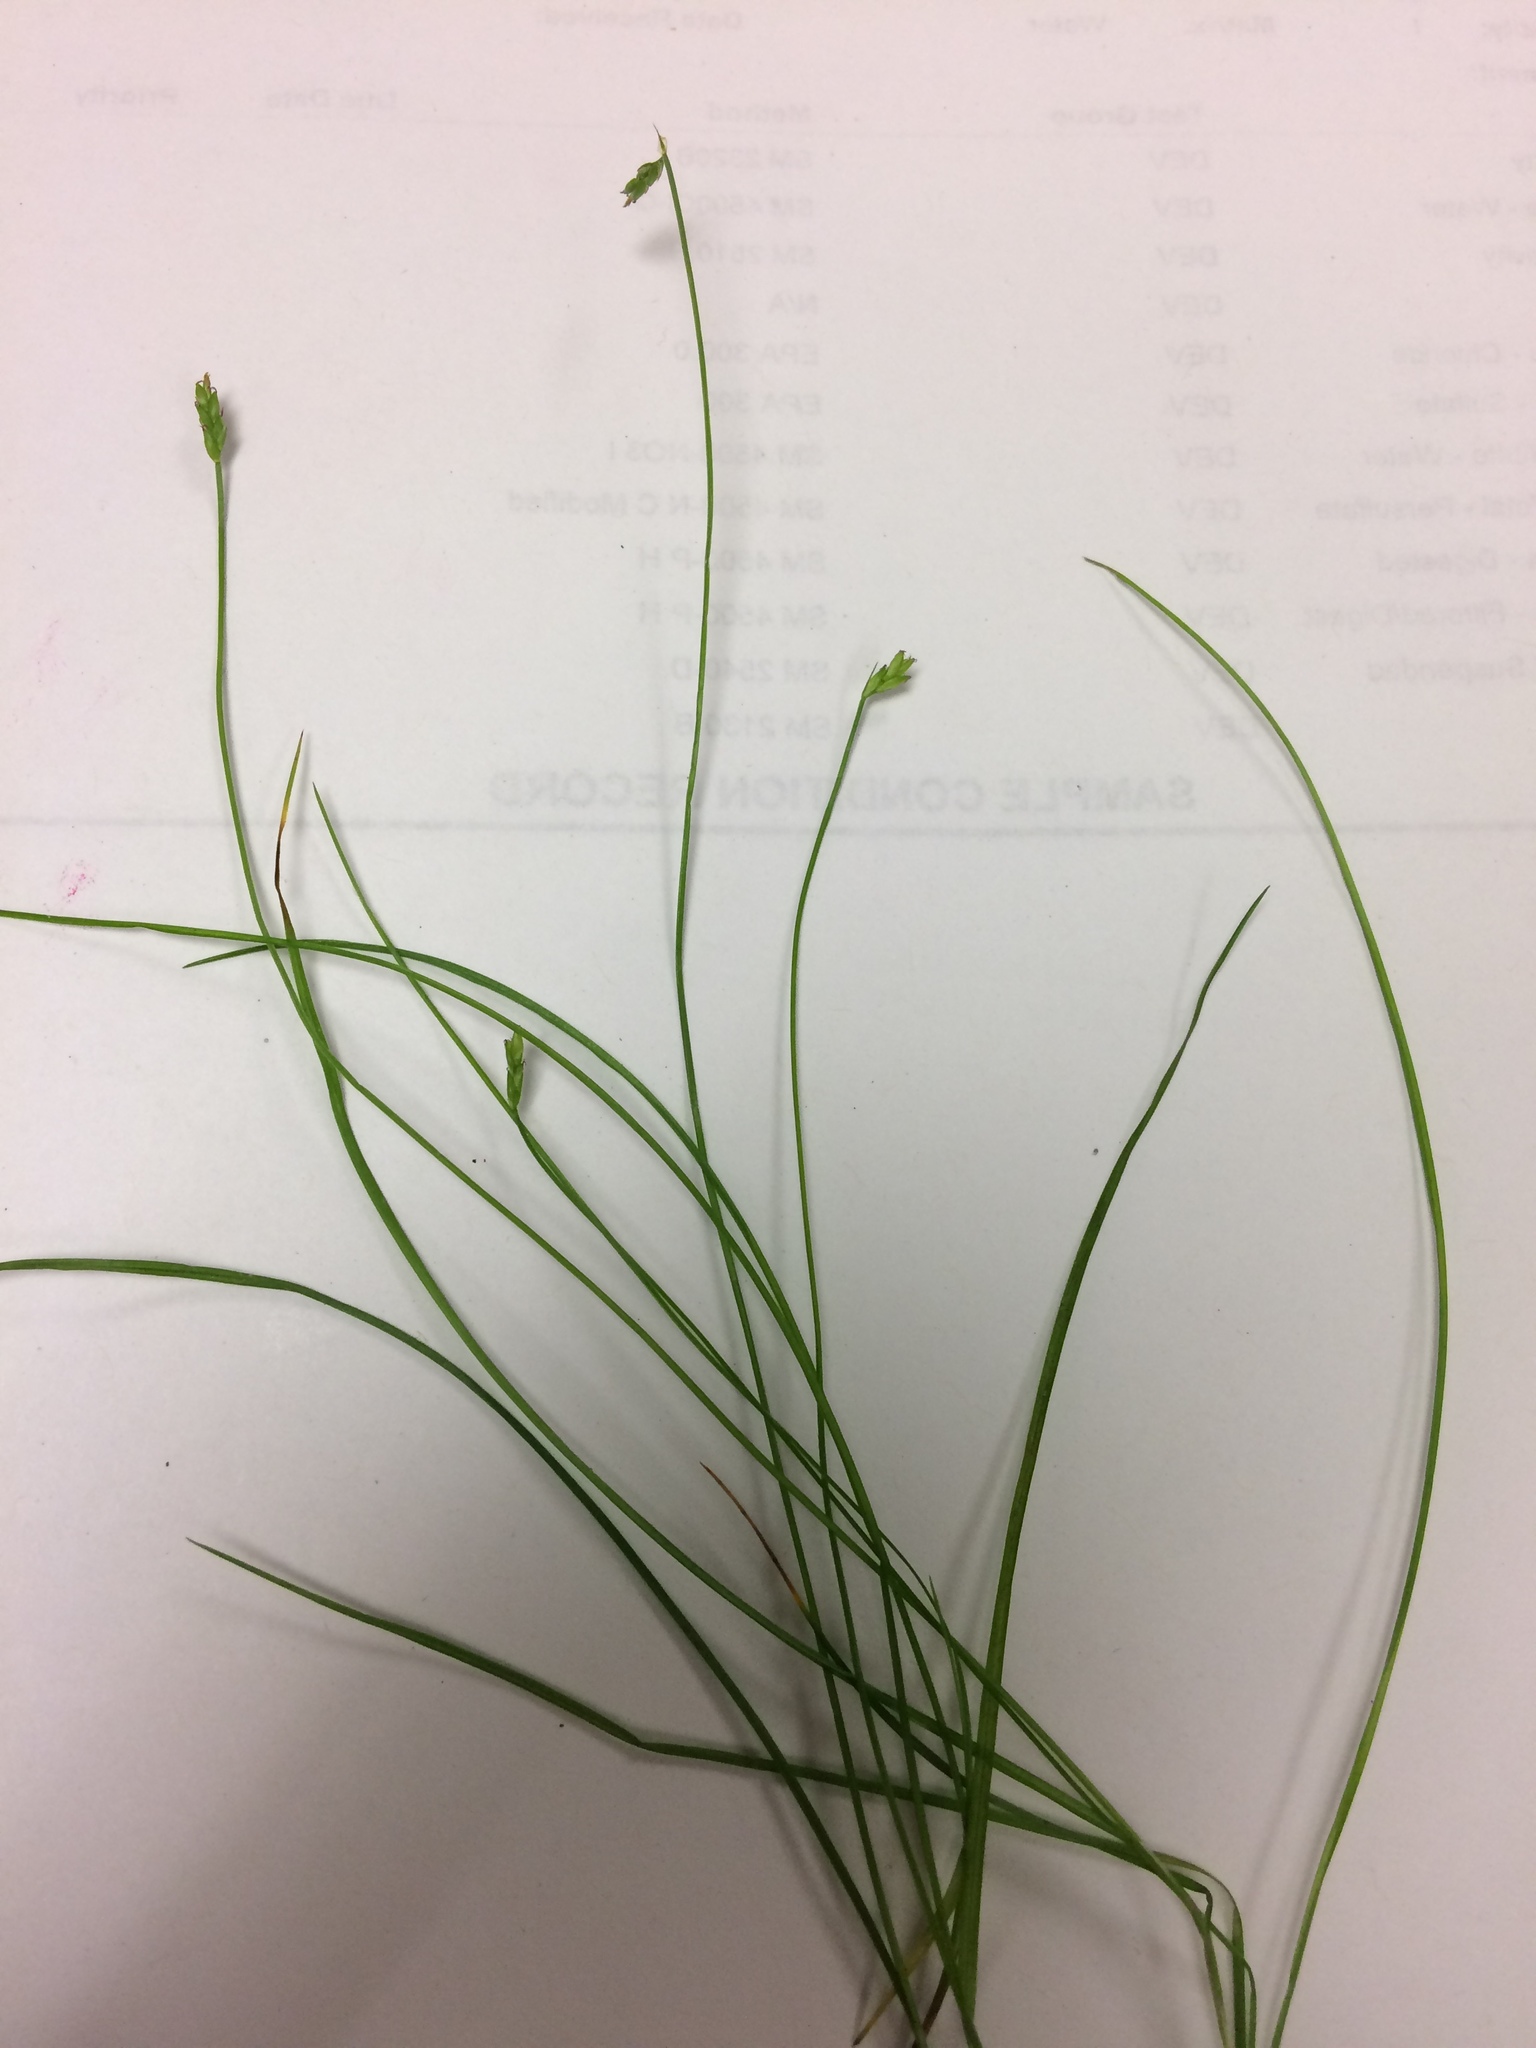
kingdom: Plantae
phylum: Tracheophyta
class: Liliopsida
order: Poales
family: Cyperaceae
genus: Carex
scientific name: Carex leptalea
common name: Bristly-stalked sedge
